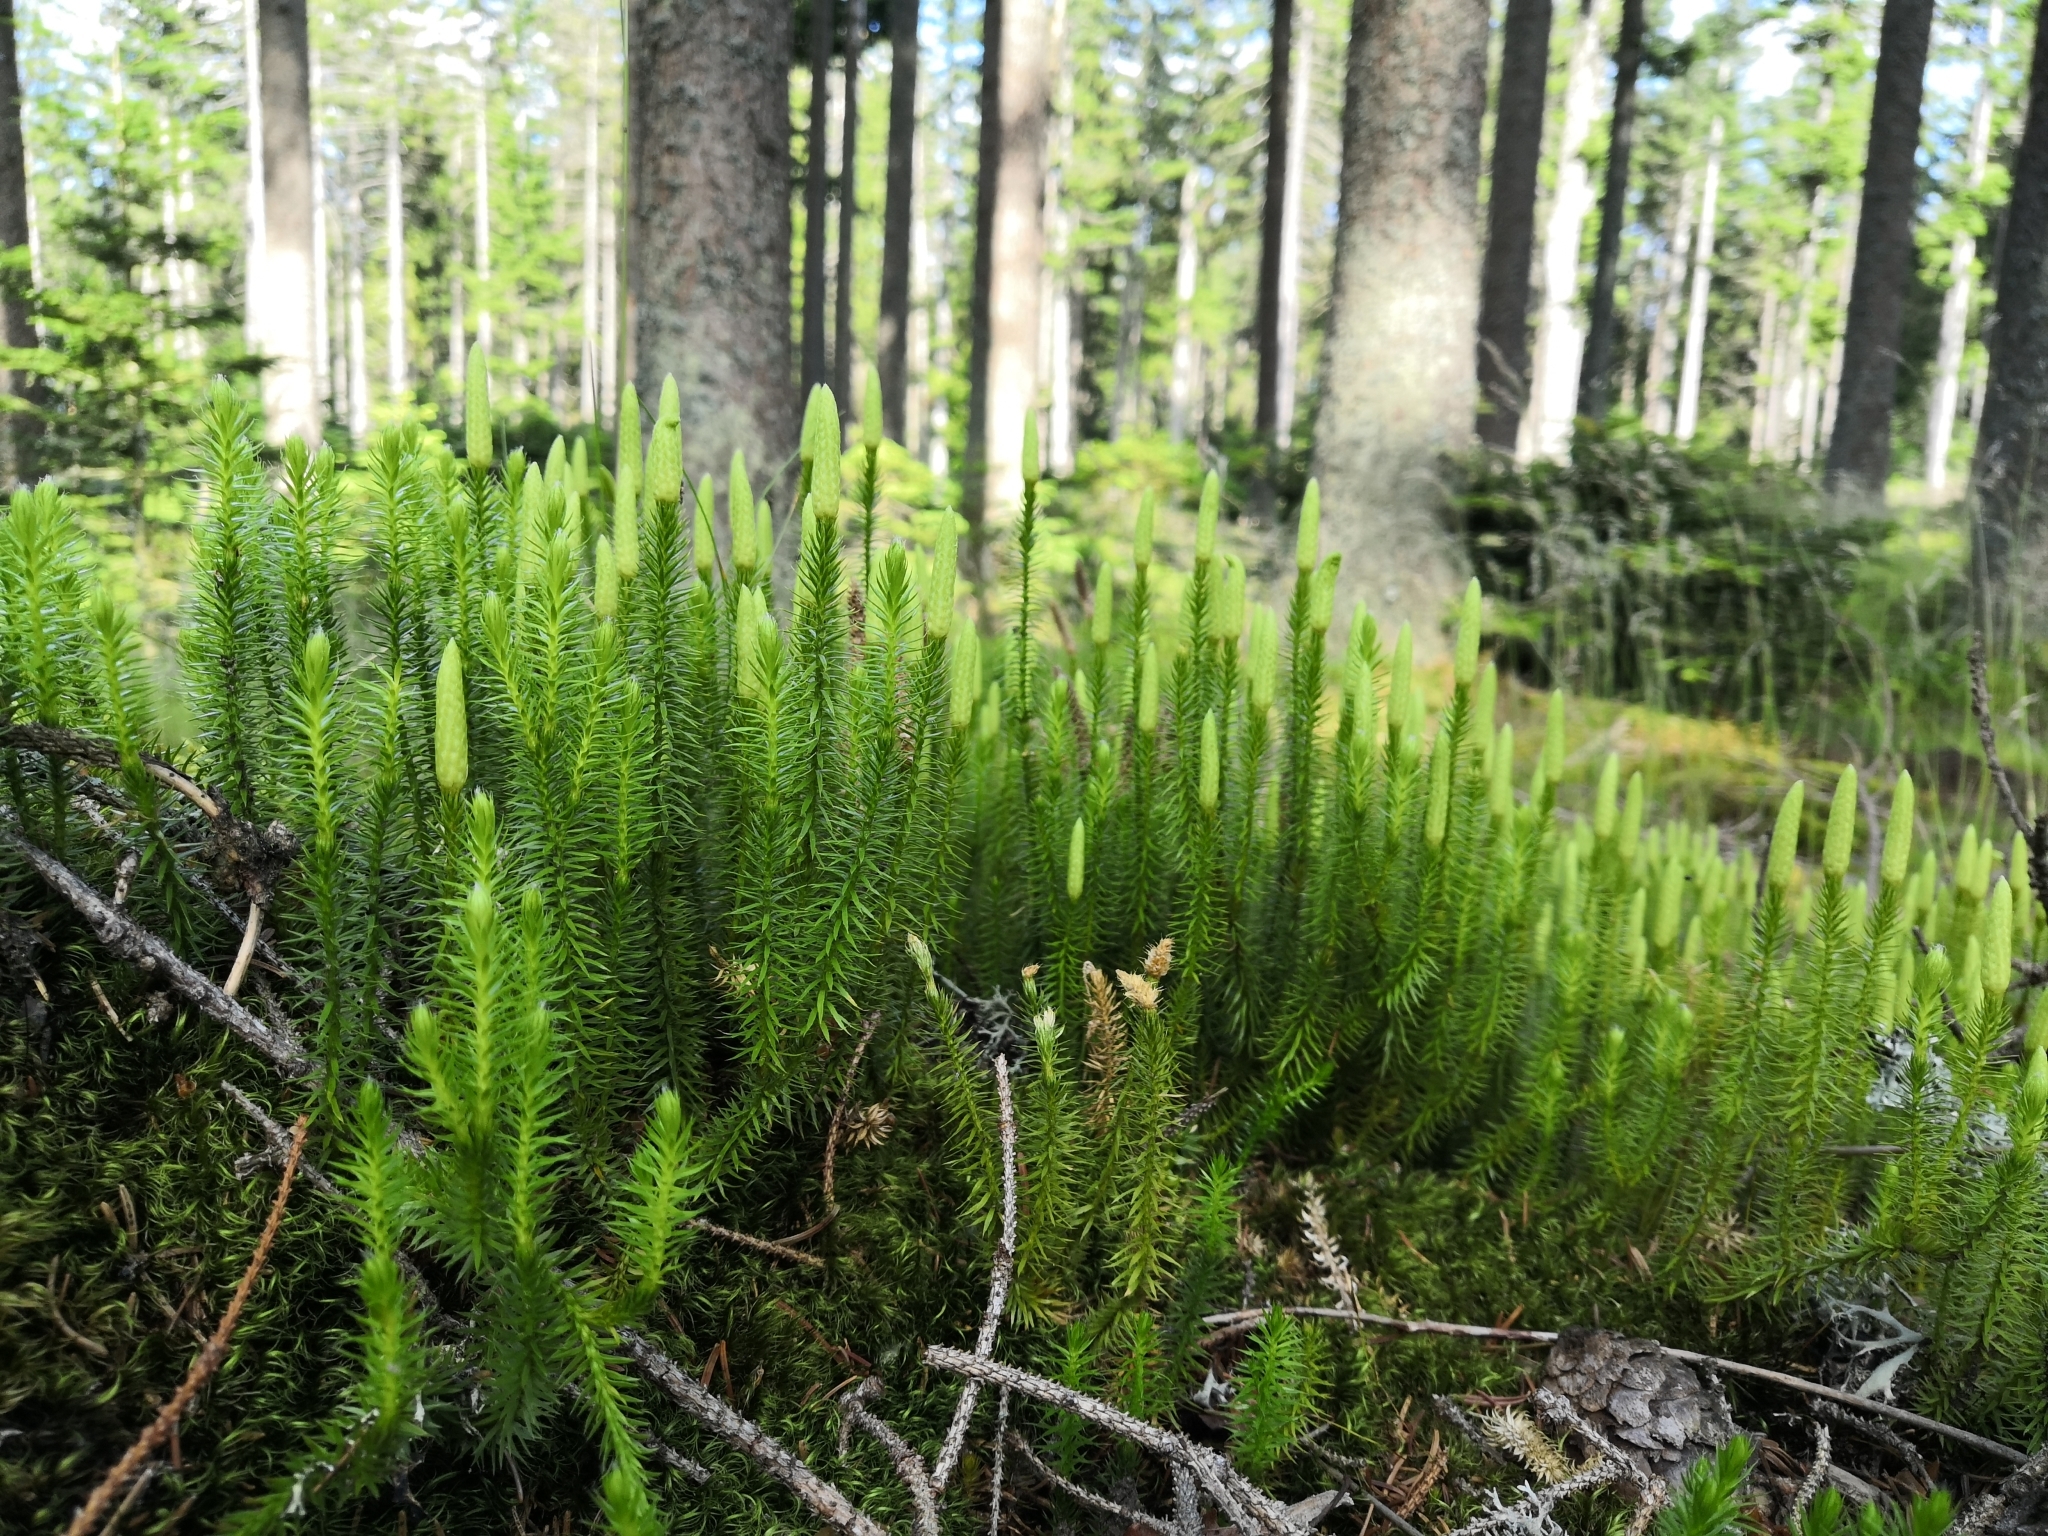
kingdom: Plantae
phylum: Tracheophyta
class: Lycopodiopsida
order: Lycopodiales
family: Lycopodiaceae
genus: Spinulum
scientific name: Spinulum annotinum
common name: Interrupted club-moss
